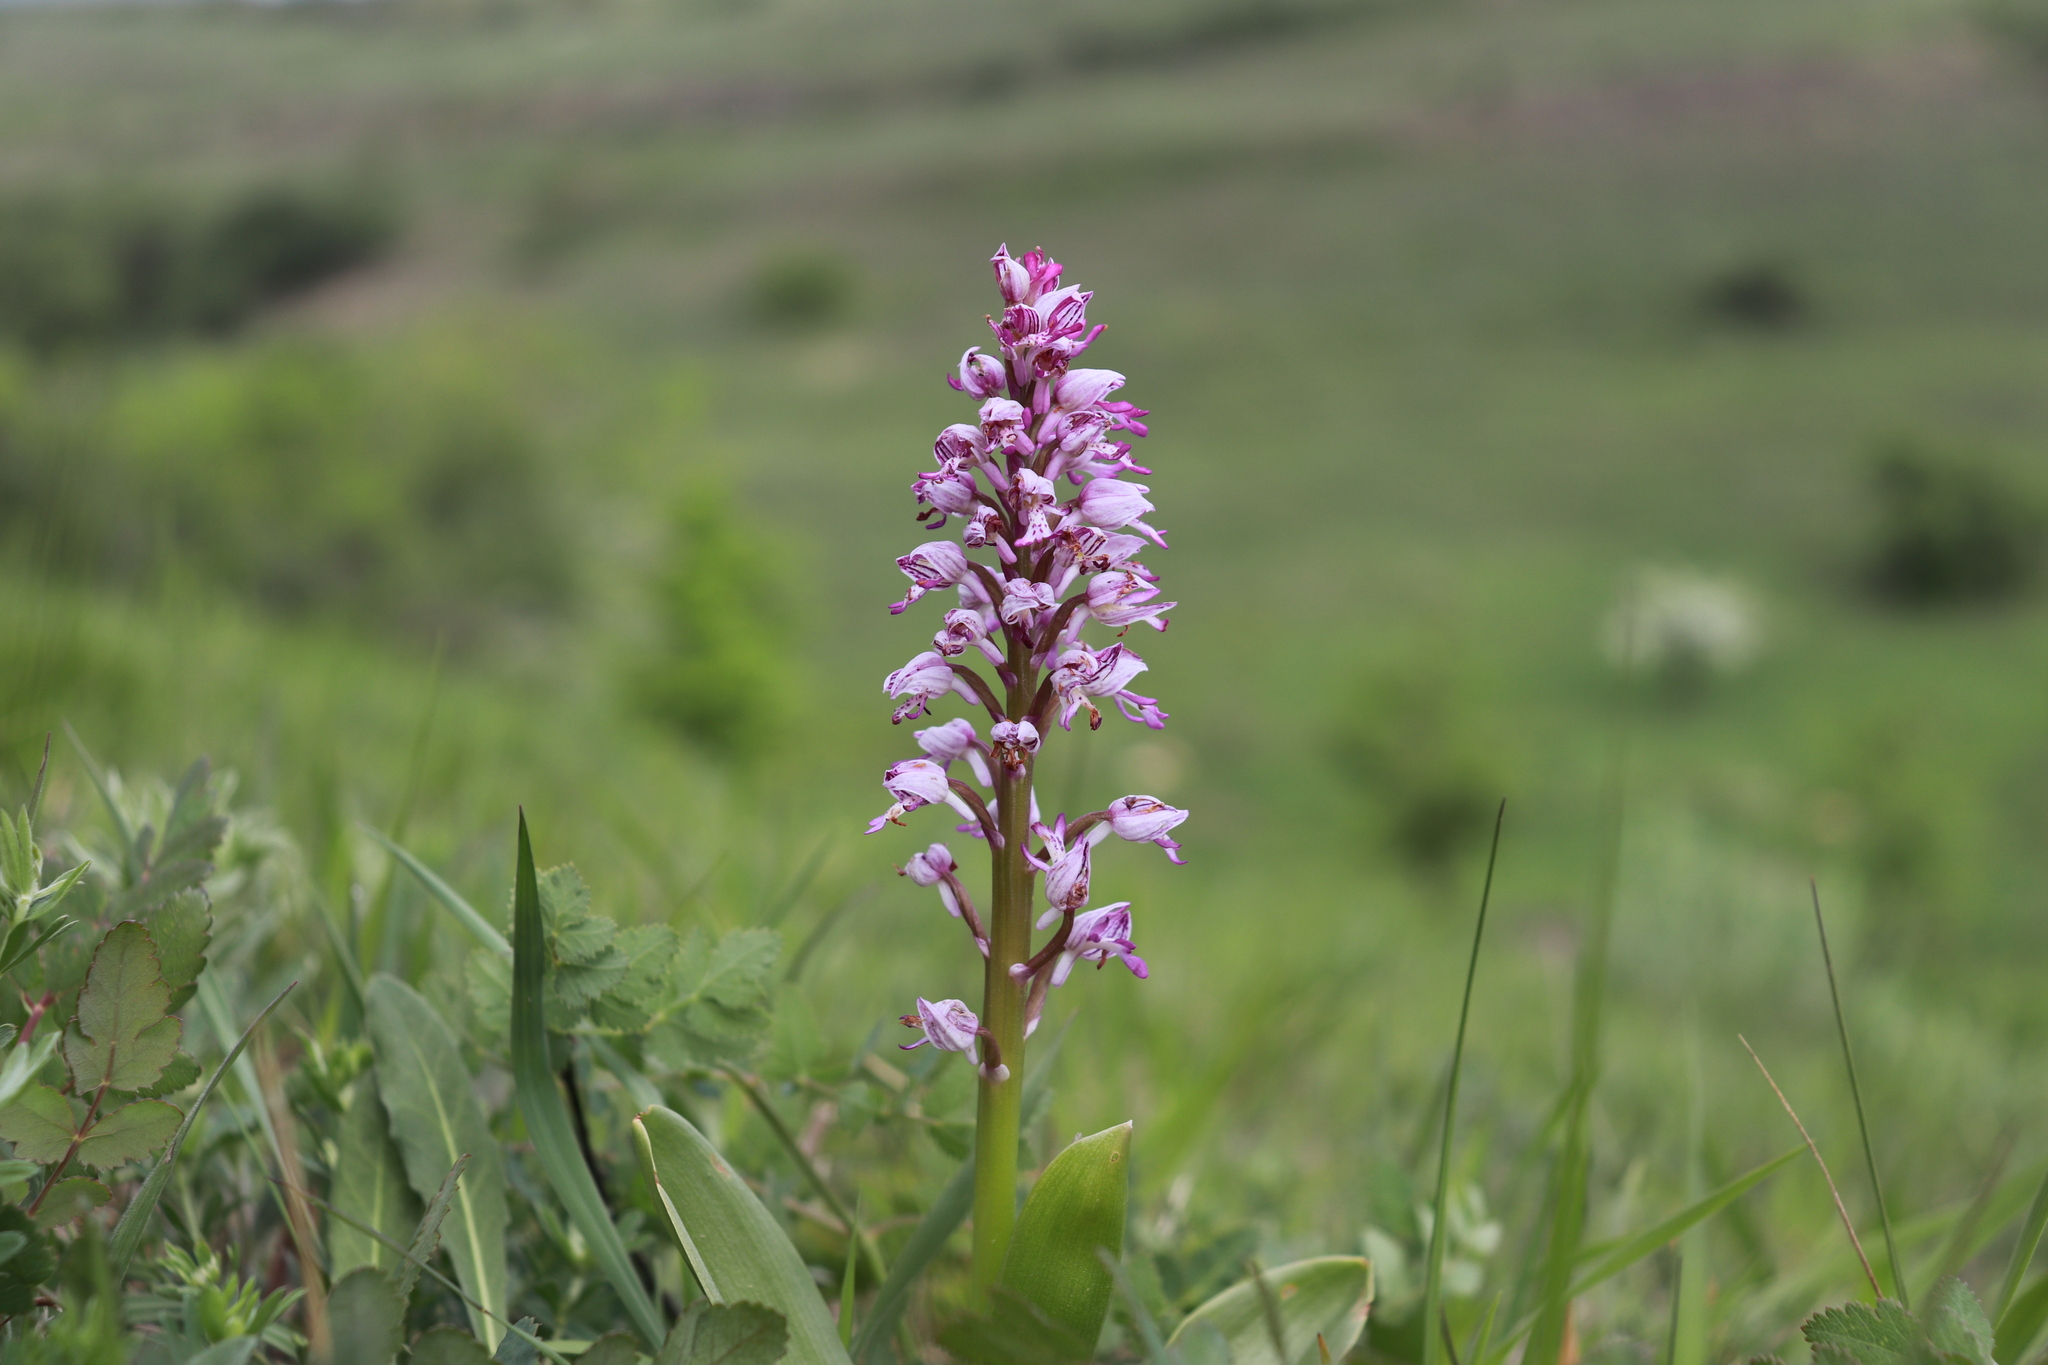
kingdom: Plantae
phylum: Tracheophyta
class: Liliopsida
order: Asparagales
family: Orchidaceae
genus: Orchis
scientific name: Orchis militaris
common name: Military orchid
